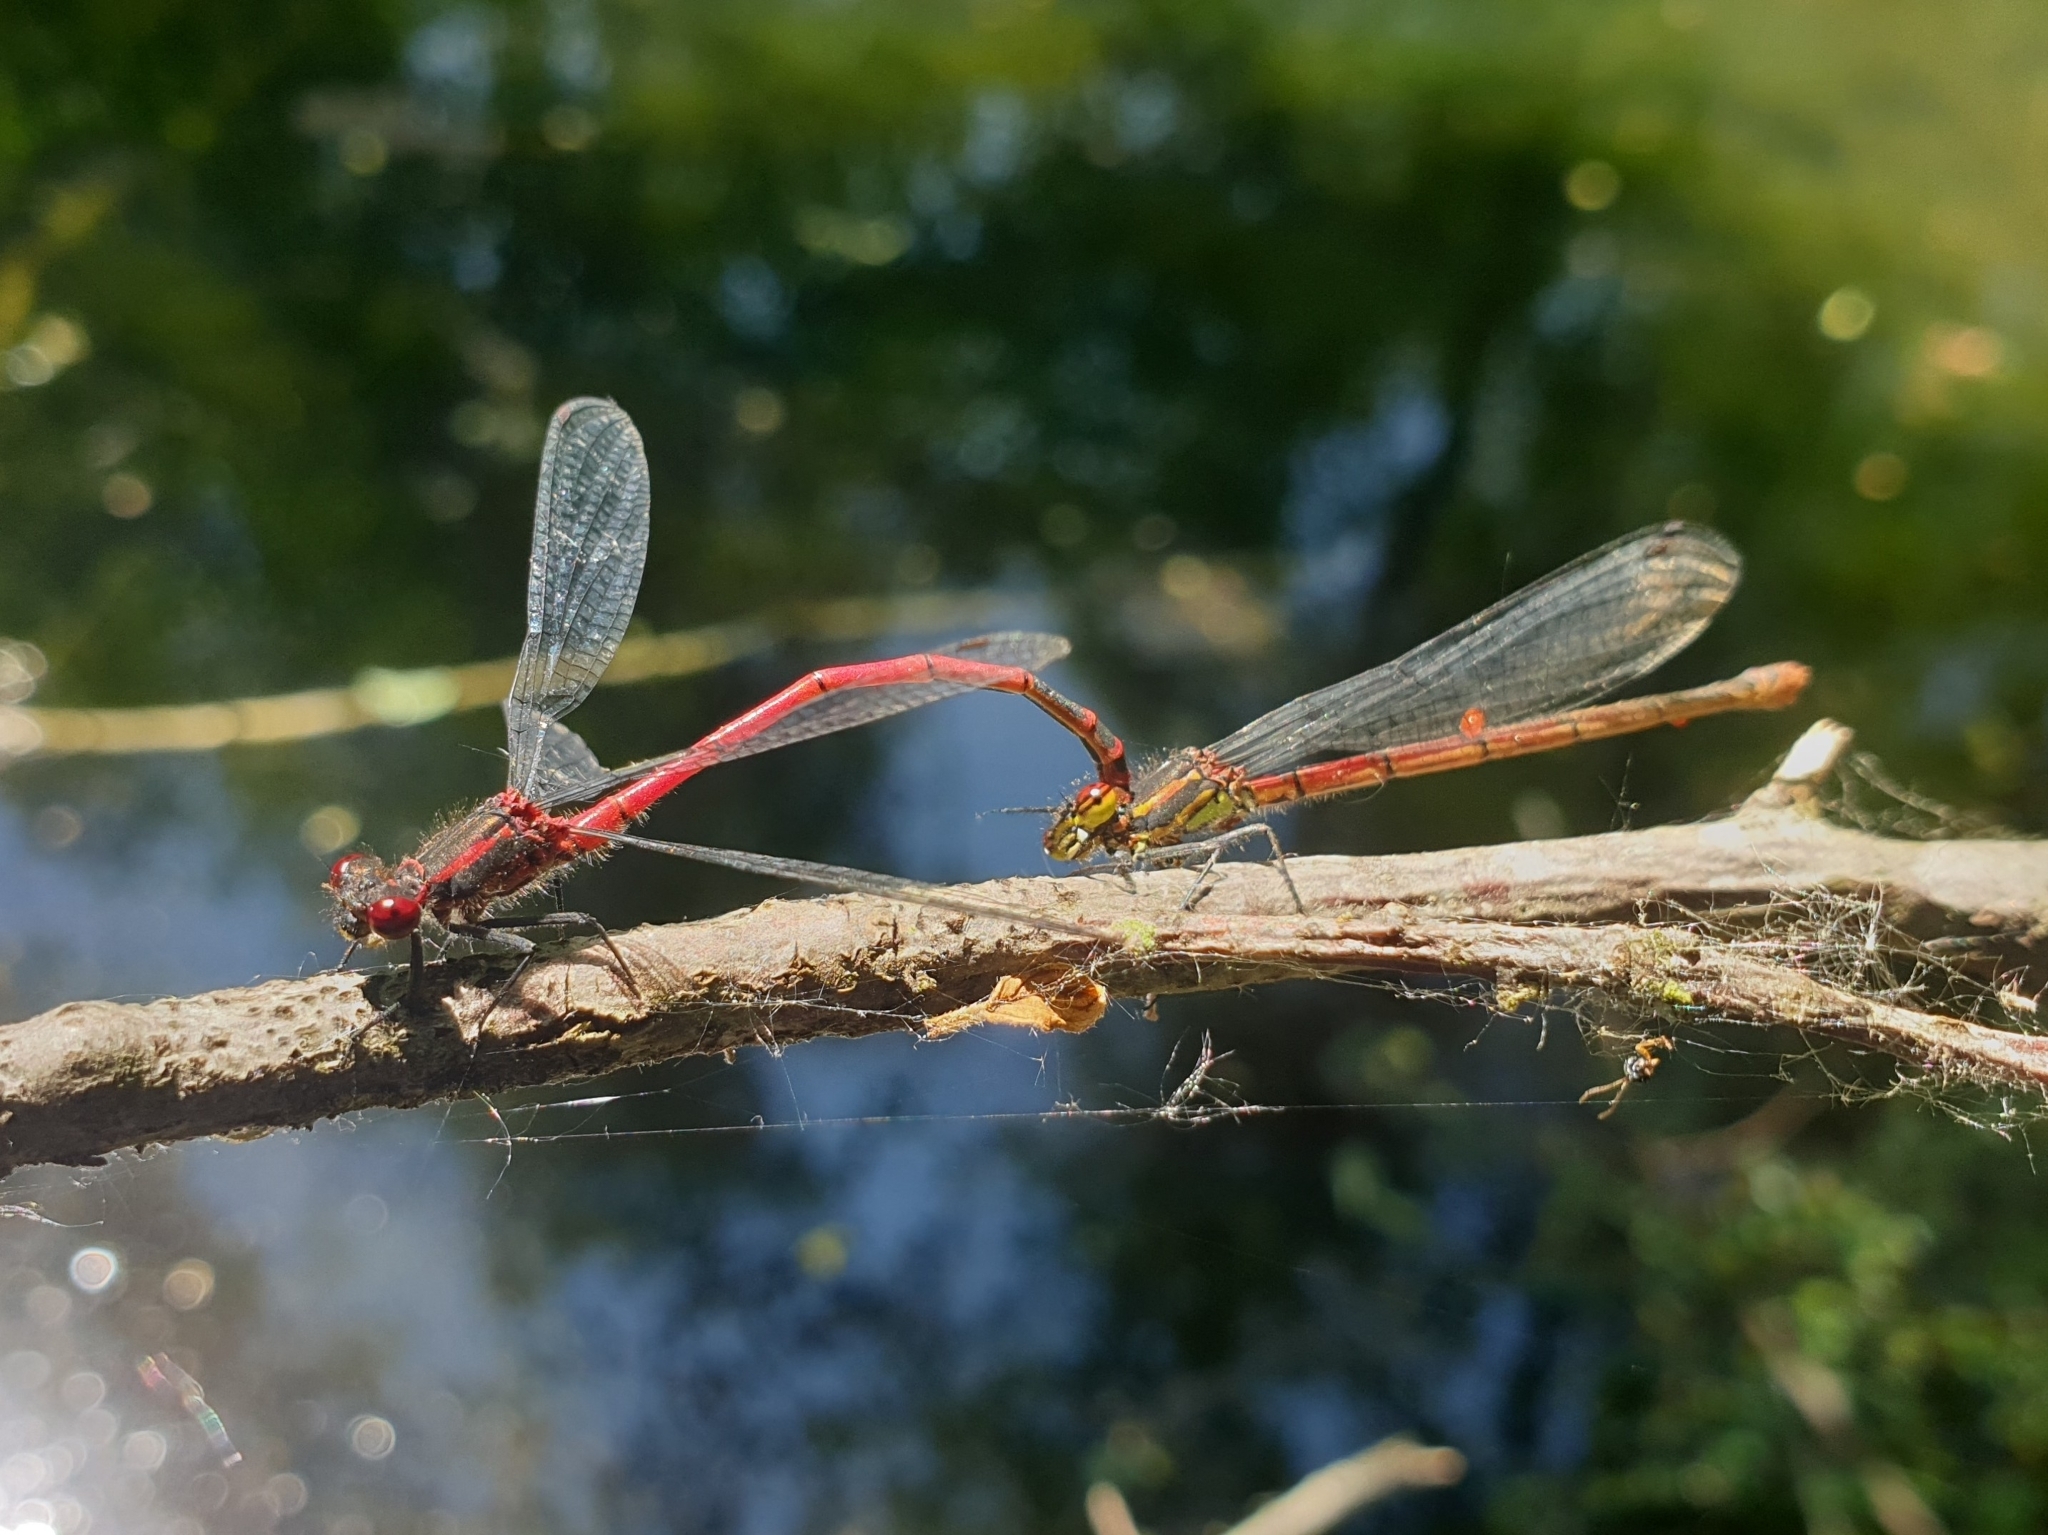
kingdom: Animalia
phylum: Arthropoda
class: Insecta
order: Odonata
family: Coenagrionidae
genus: Pyrrhosoma
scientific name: Pyrrhosoma nymphula
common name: Large red damsel
